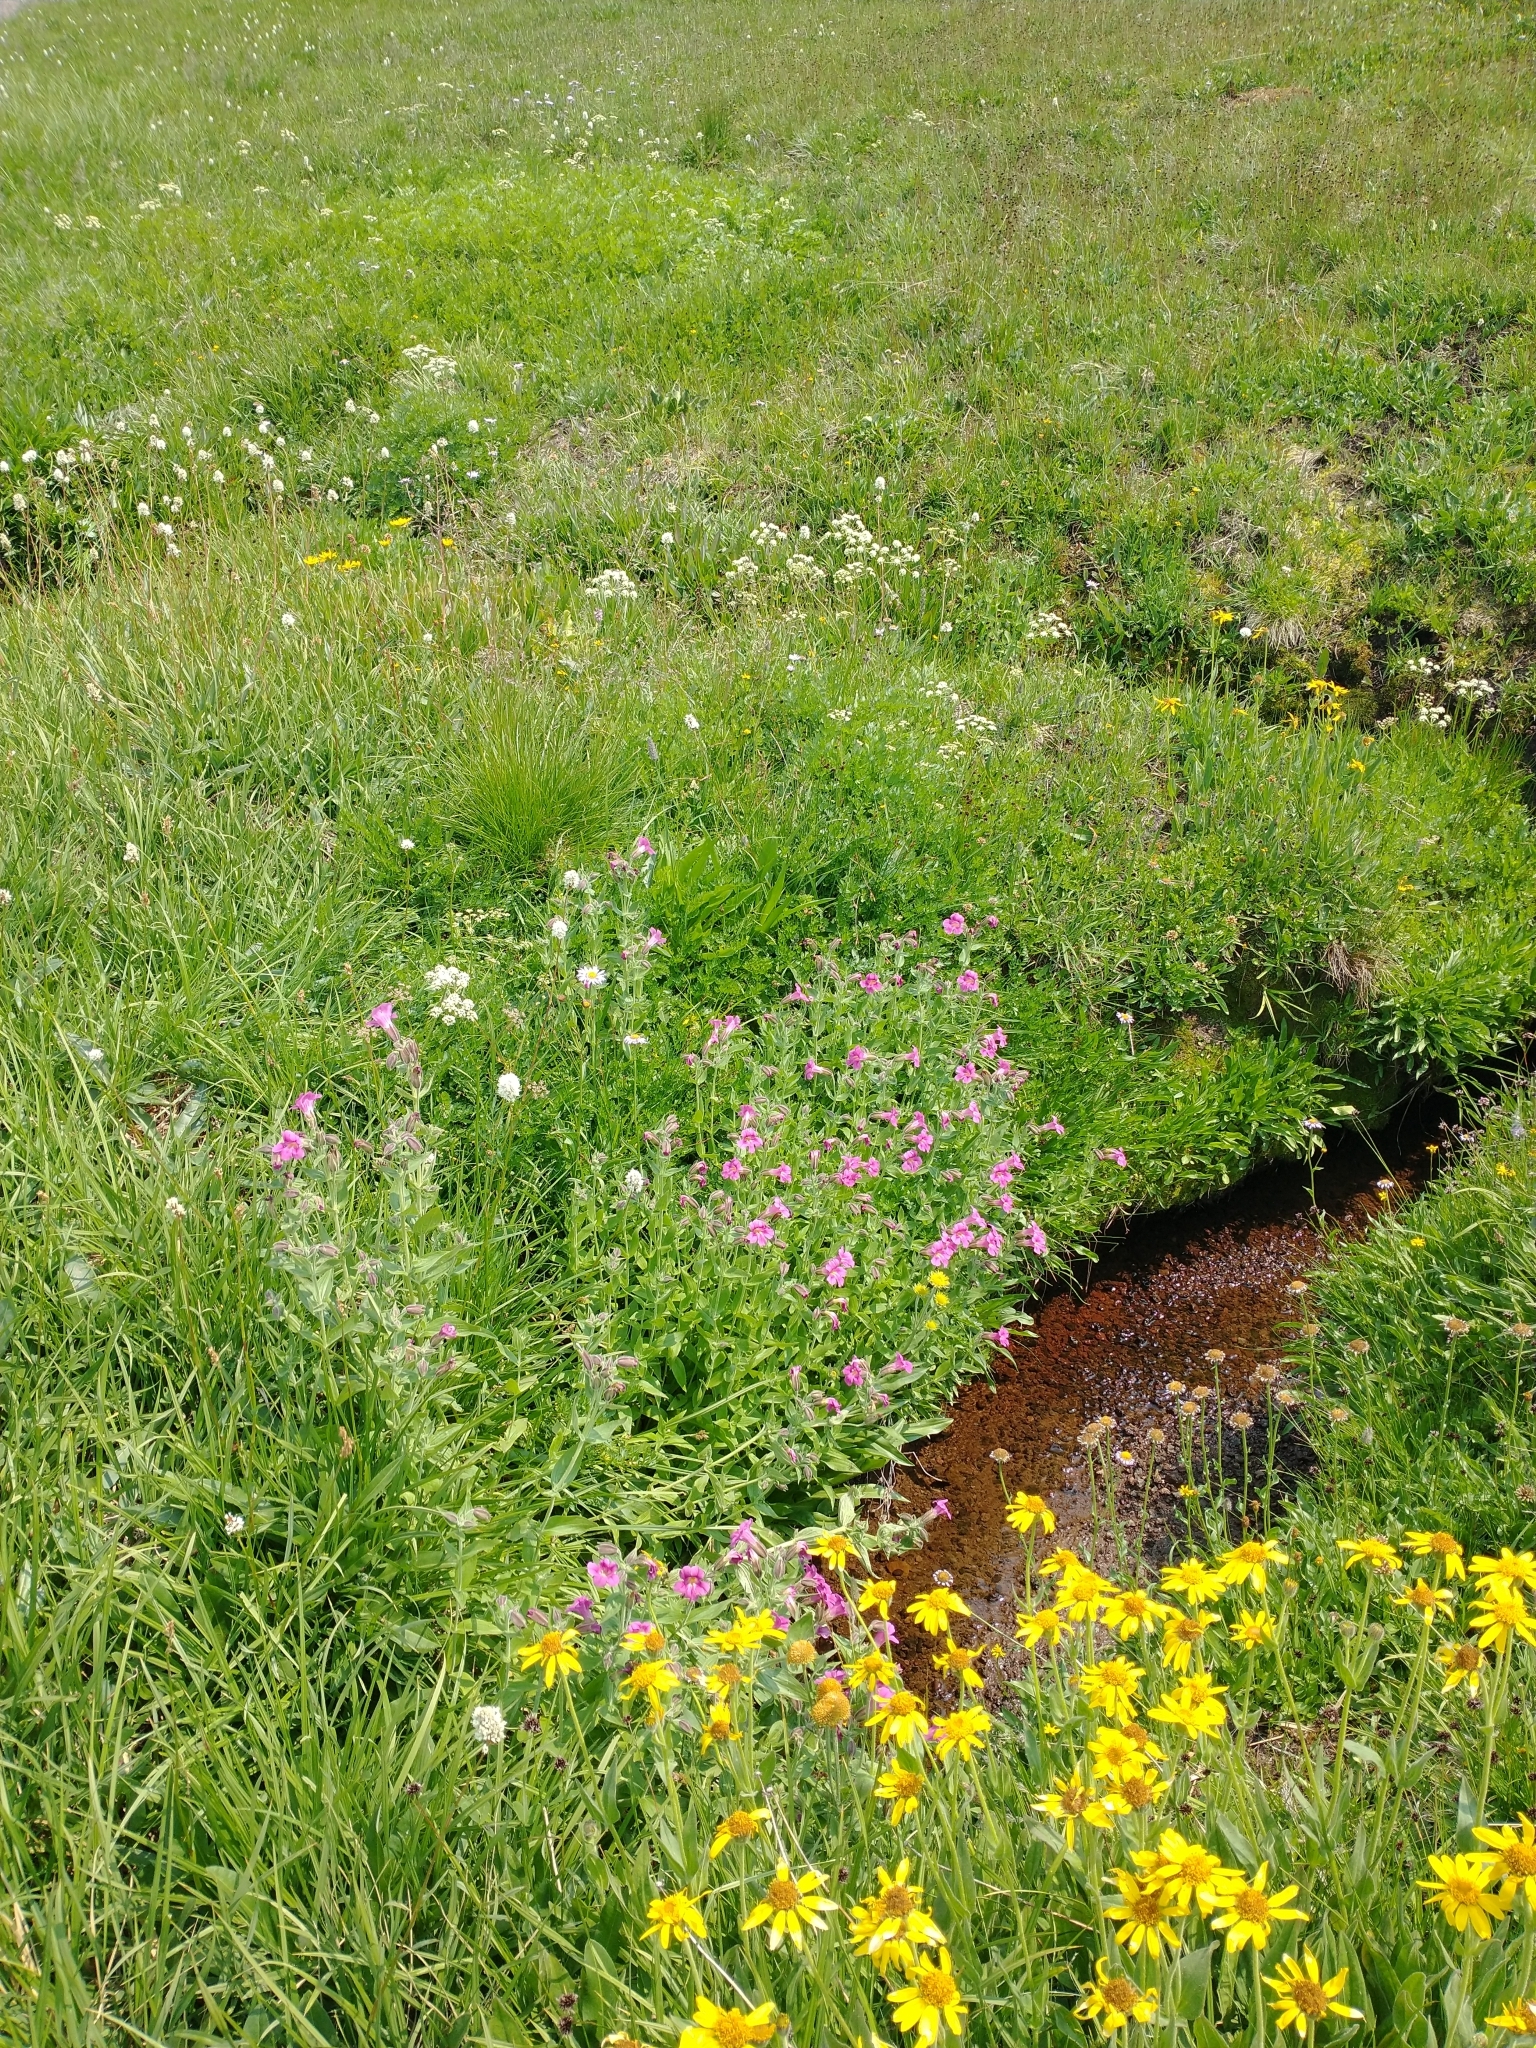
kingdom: Plantae
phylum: Tracheophyta
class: Magnoliopsida
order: Lamiales
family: Phrymaceae
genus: Erythranthe
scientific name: Erythranthe lewisii
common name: Lewis's monkey-flower
